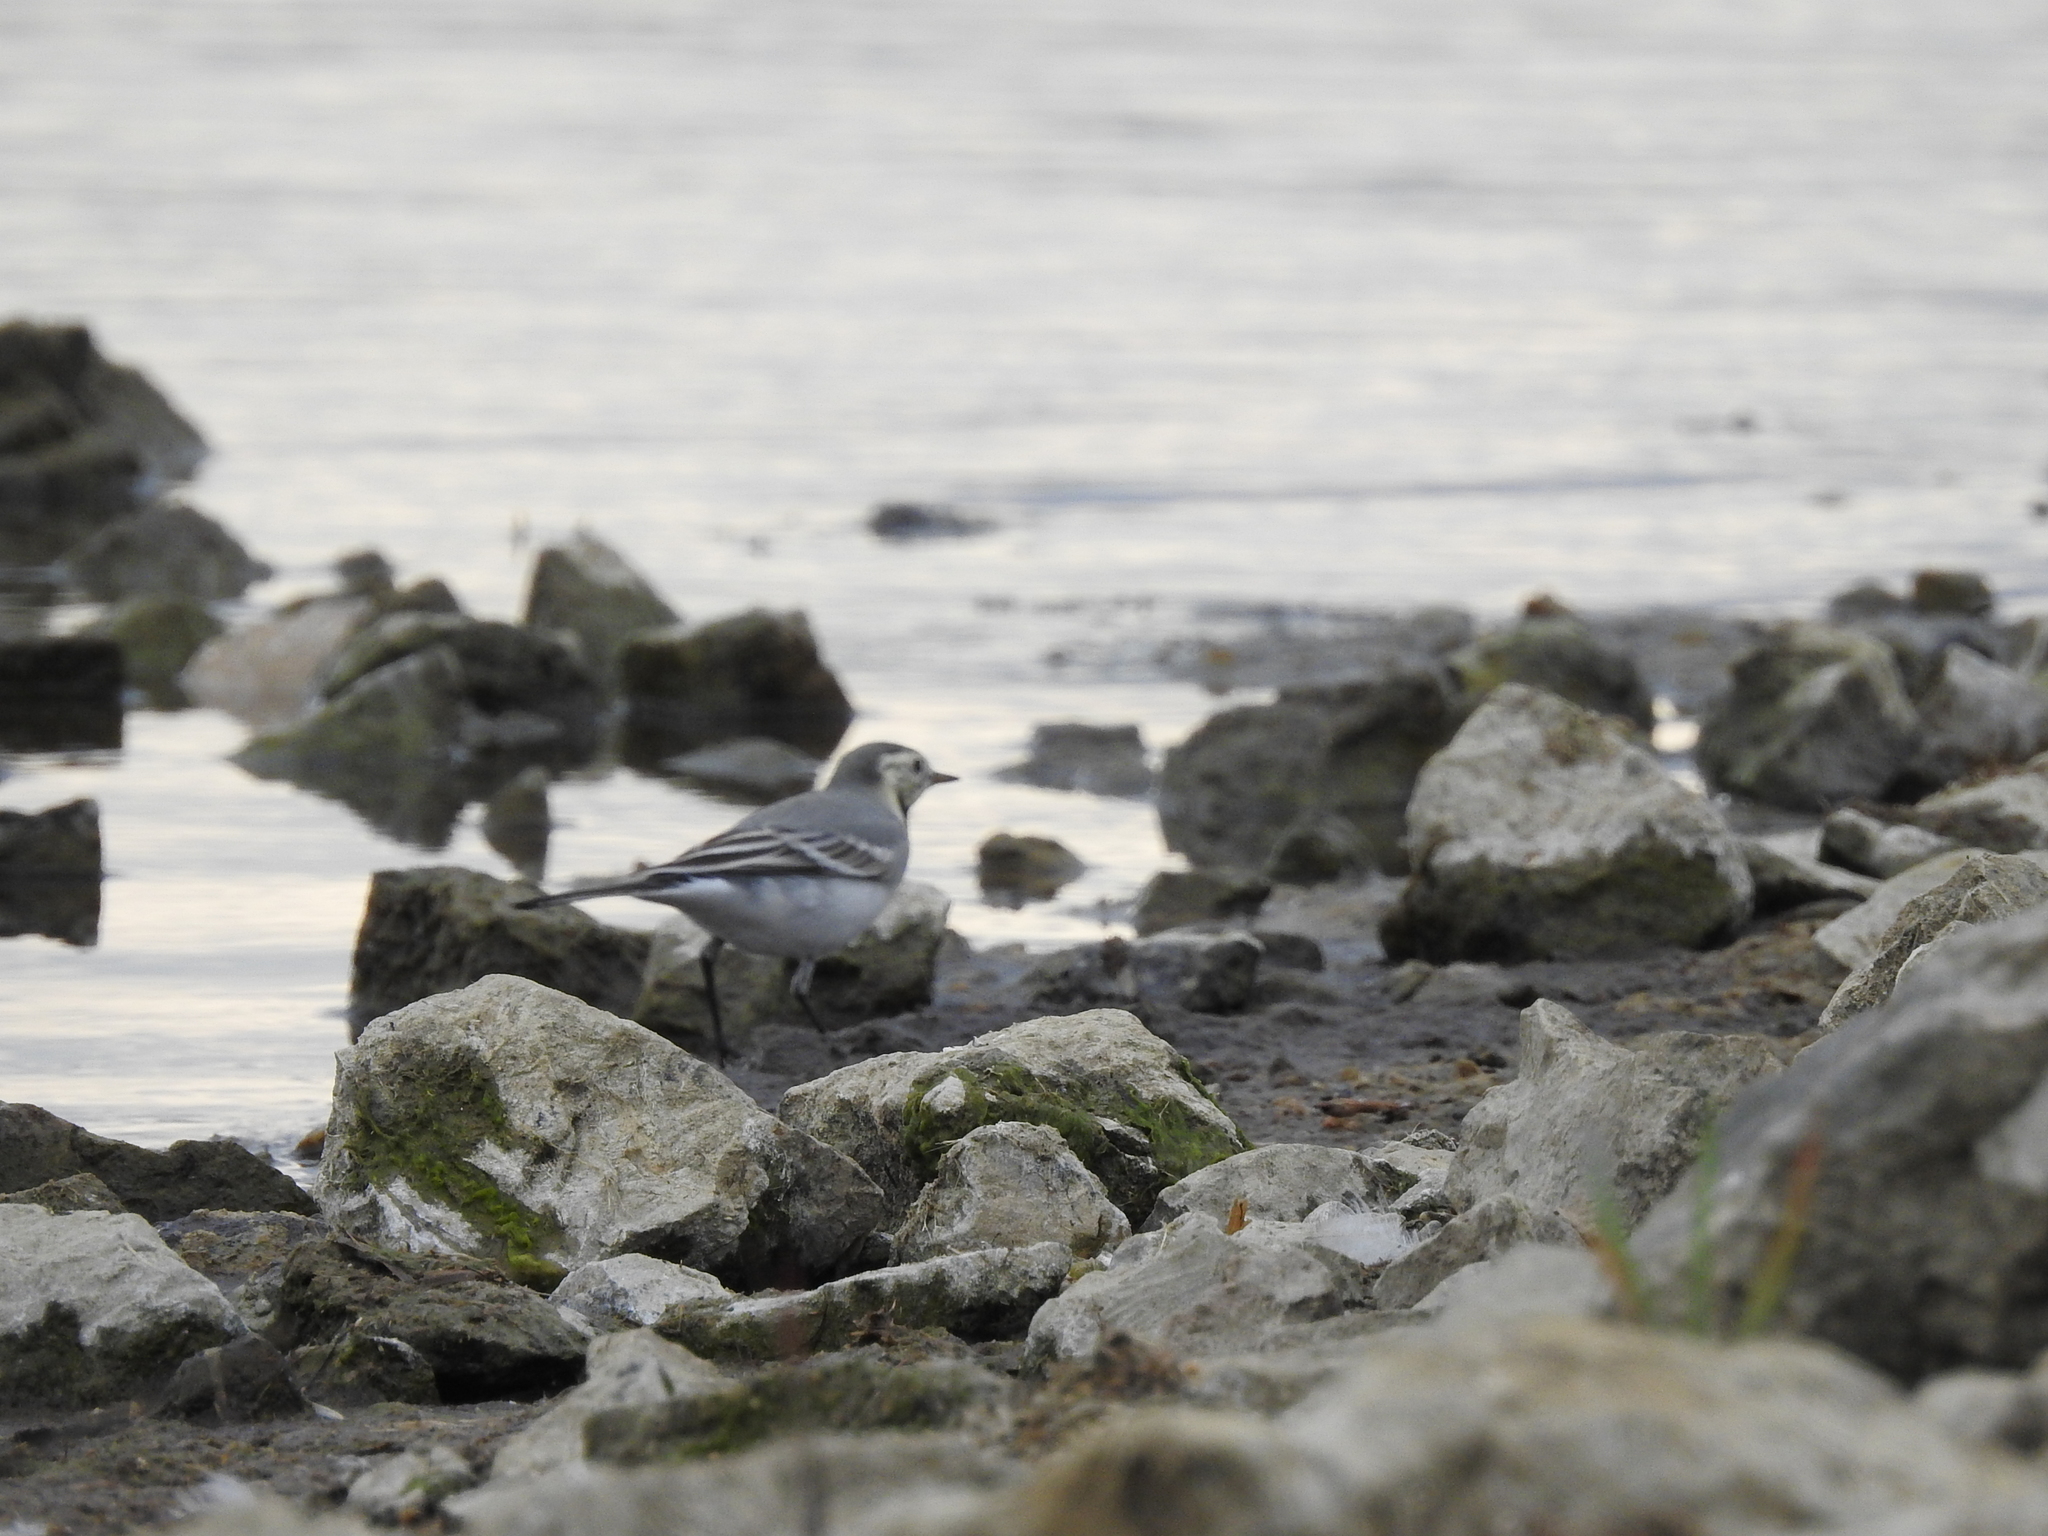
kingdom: Animalia
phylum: Chordata
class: Aves
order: Passeriformes
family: Motacillidae
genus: Motacilla
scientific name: Motacilla alba
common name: White wagtail
